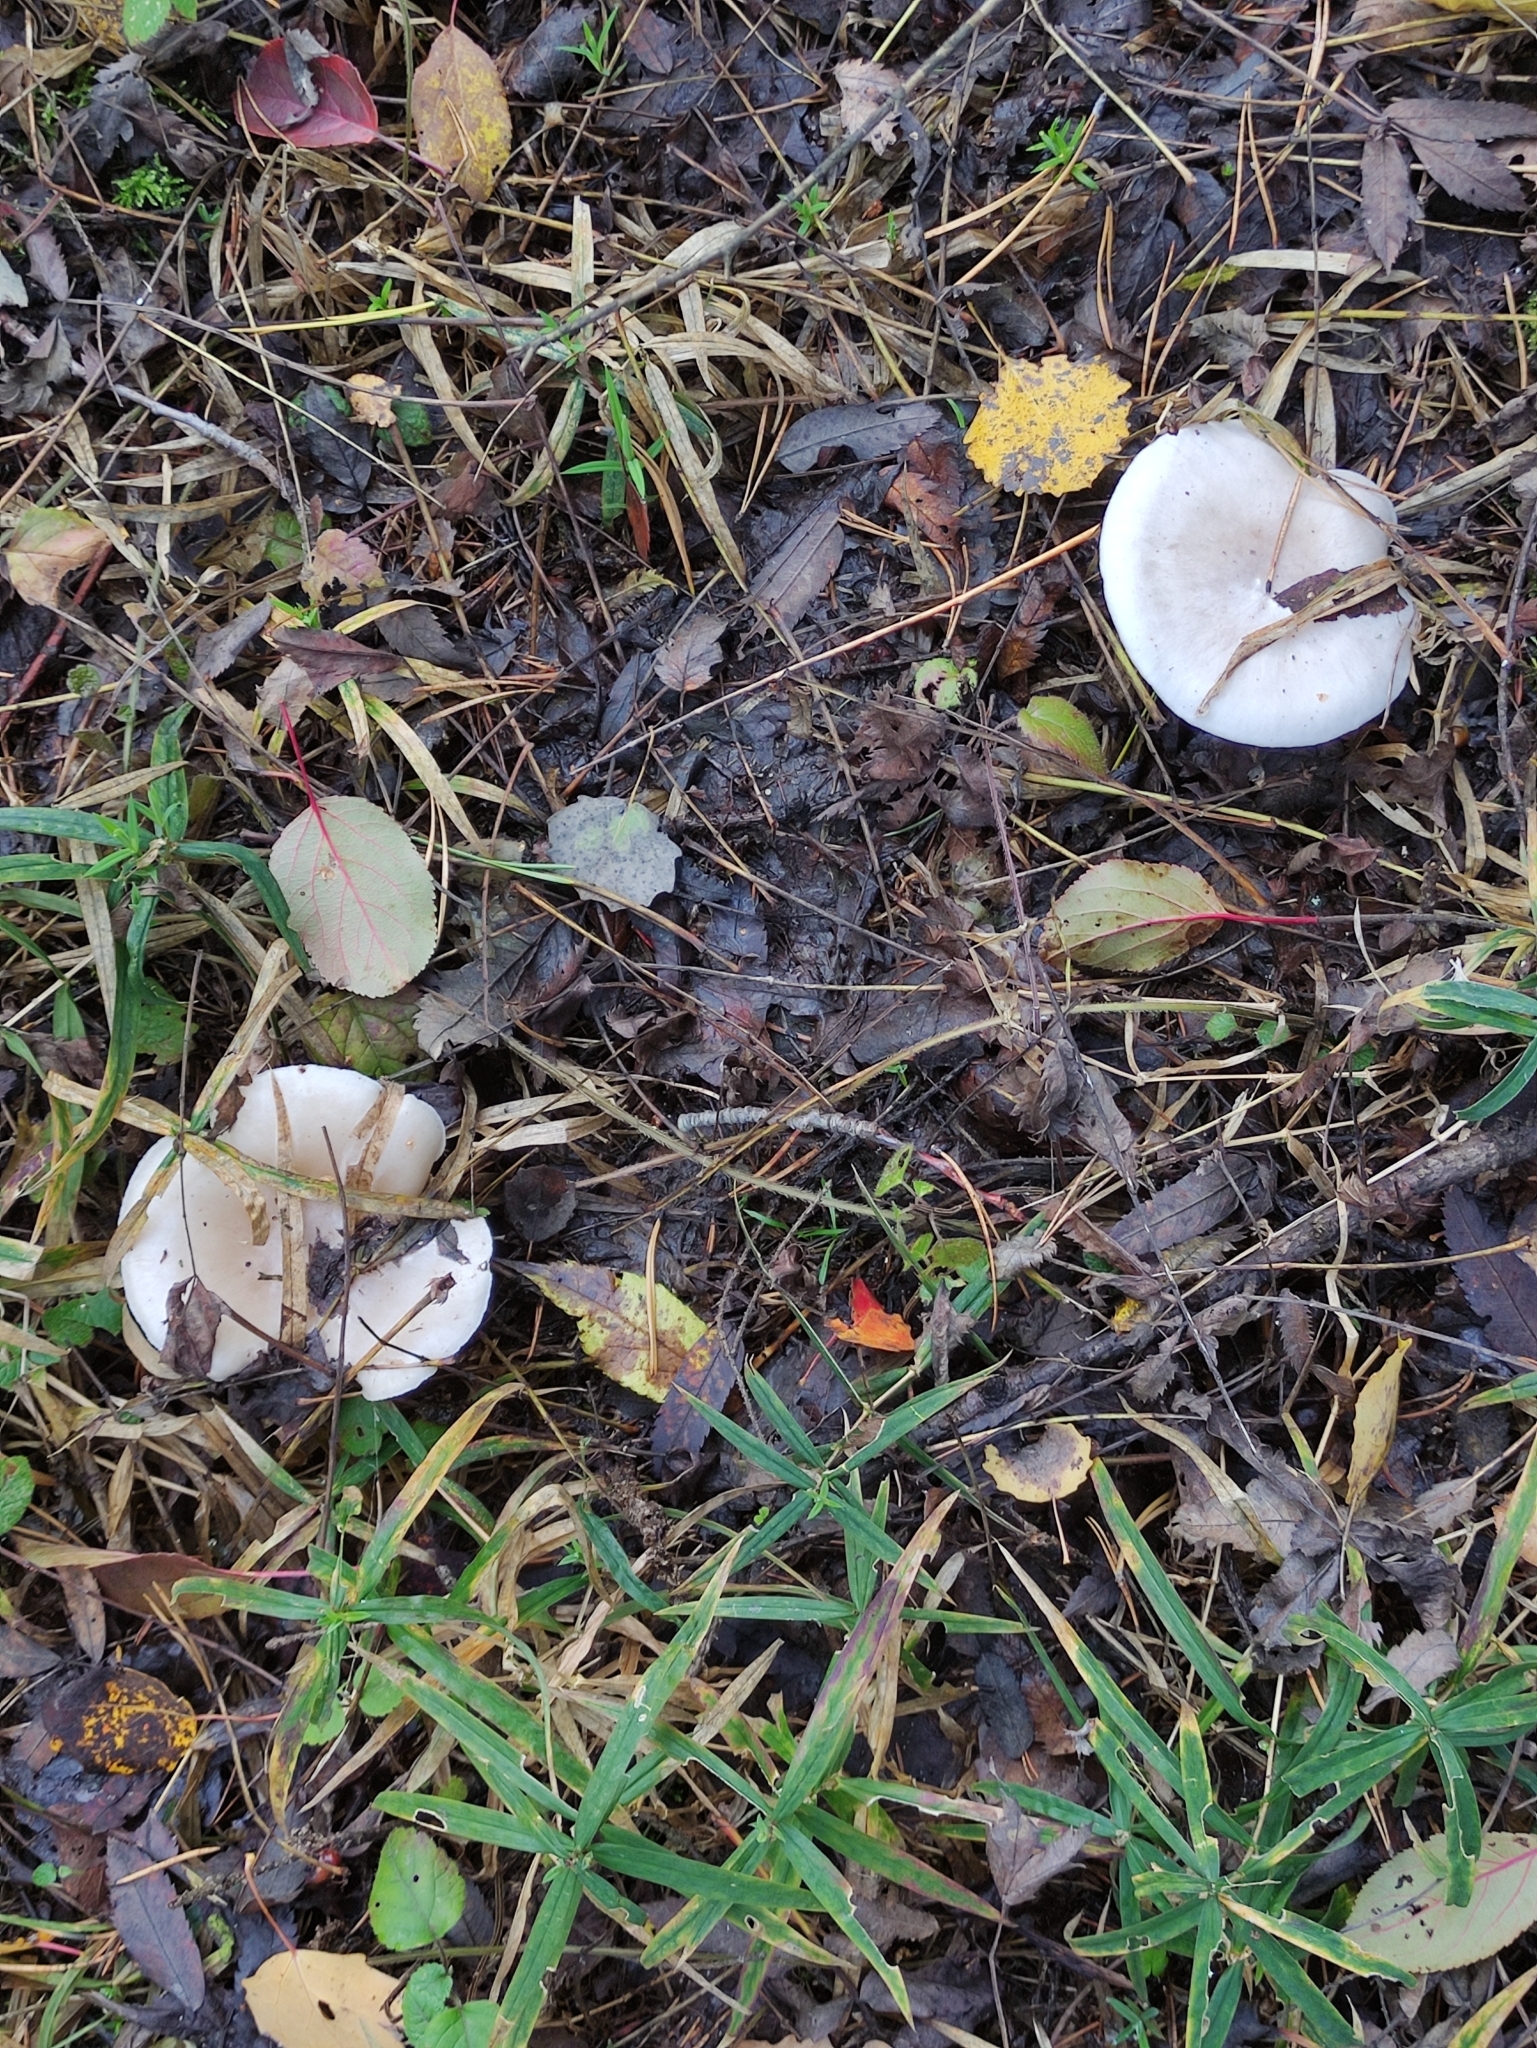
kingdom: Fungi
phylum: Basidiomycota
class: Agaricomycetes
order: Agaricales
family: Tricholomataceae
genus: Clitocybe
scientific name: Clitocybe nebularis
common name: Clouded agaric
